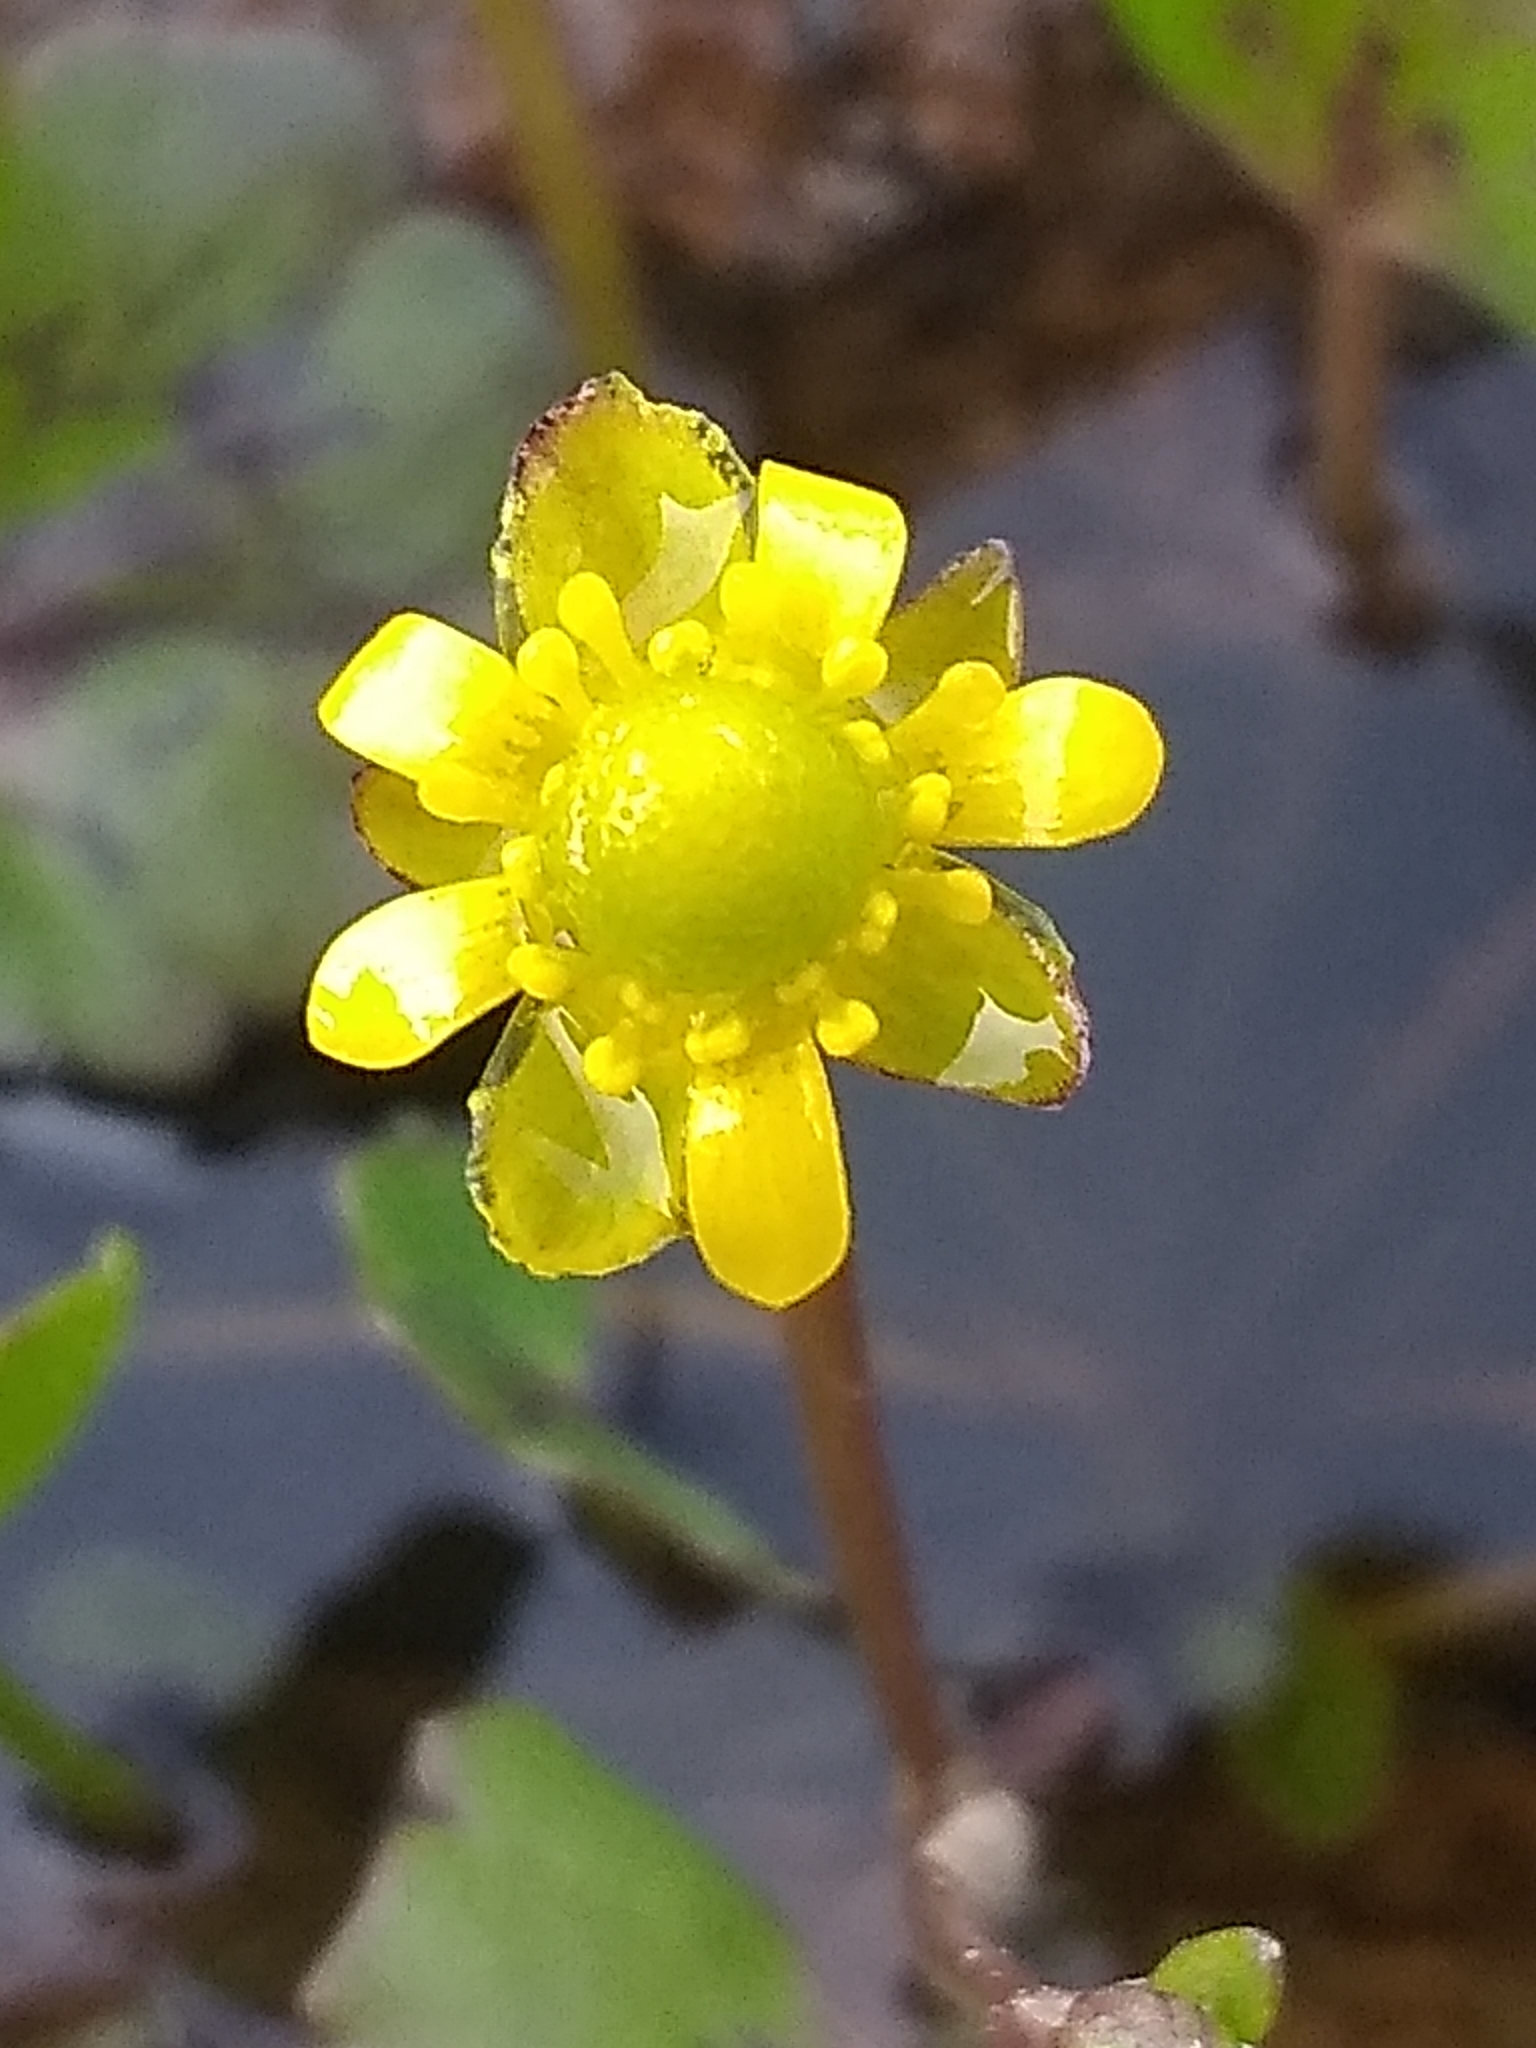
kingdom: Plantae
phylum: Tracheophyta
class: Magnoliopsida
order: Ranunculales
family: Ranunculaceae
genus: Halerpestes
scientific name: Halerpestes cymbalaria
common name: Seaside crowfoot
